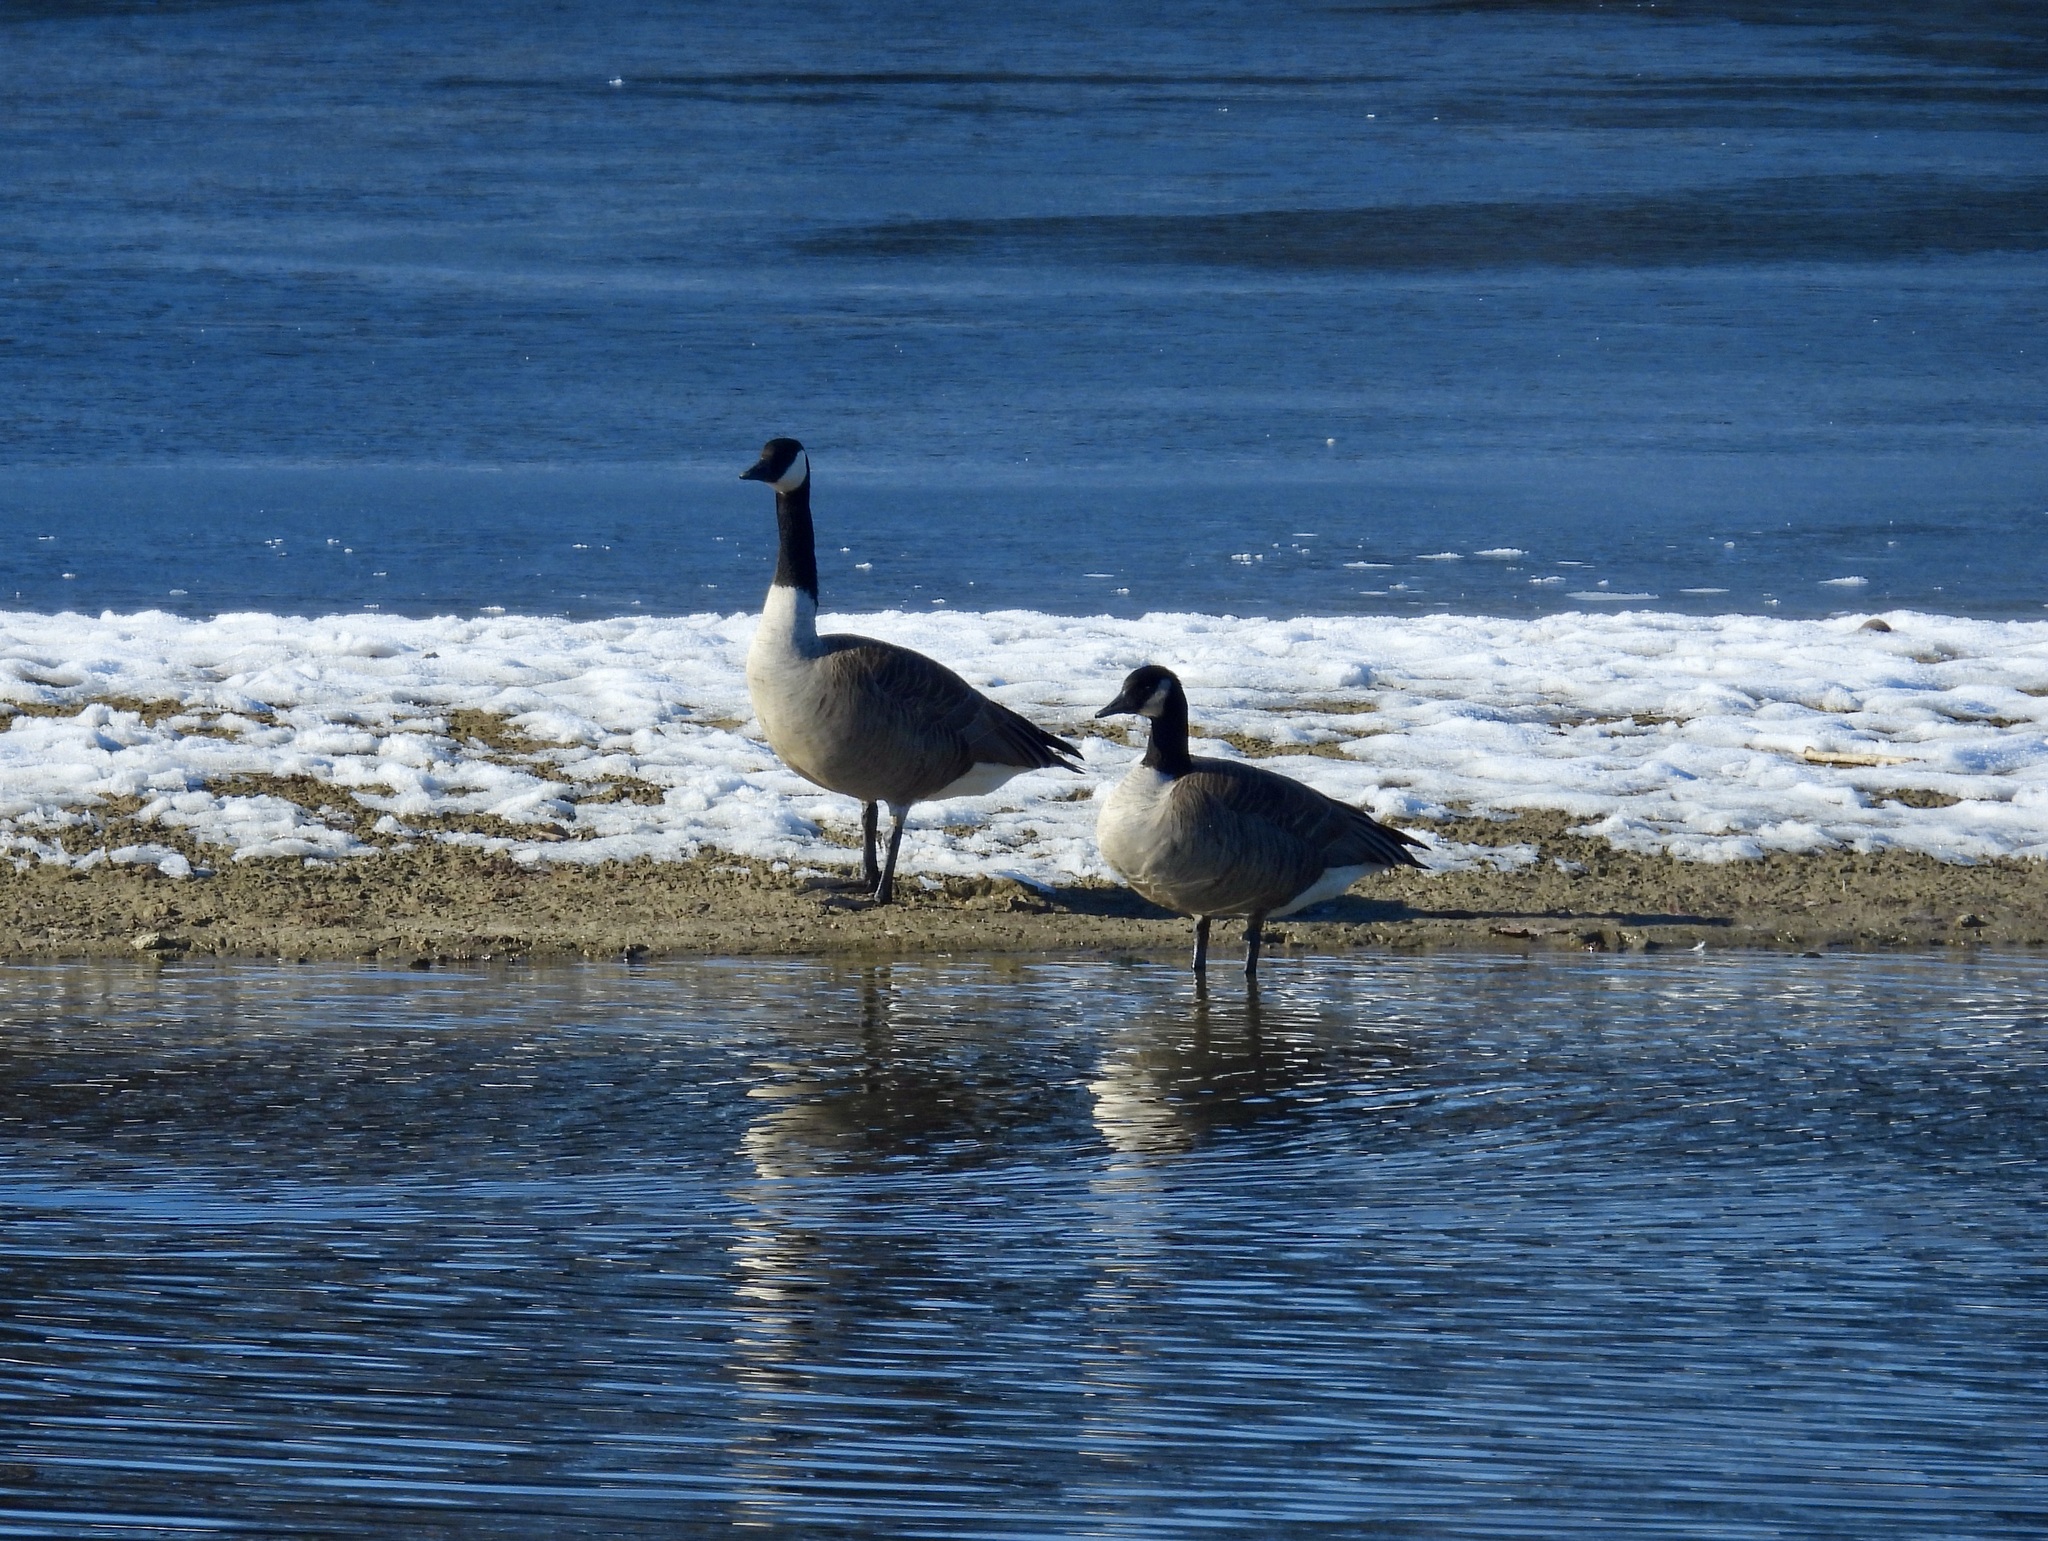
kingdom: Animalia
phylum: Chordata
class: Aves
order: Anseriformes
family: Anatidae
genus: Branta
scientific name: Branta canadensis
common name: Canada goose
